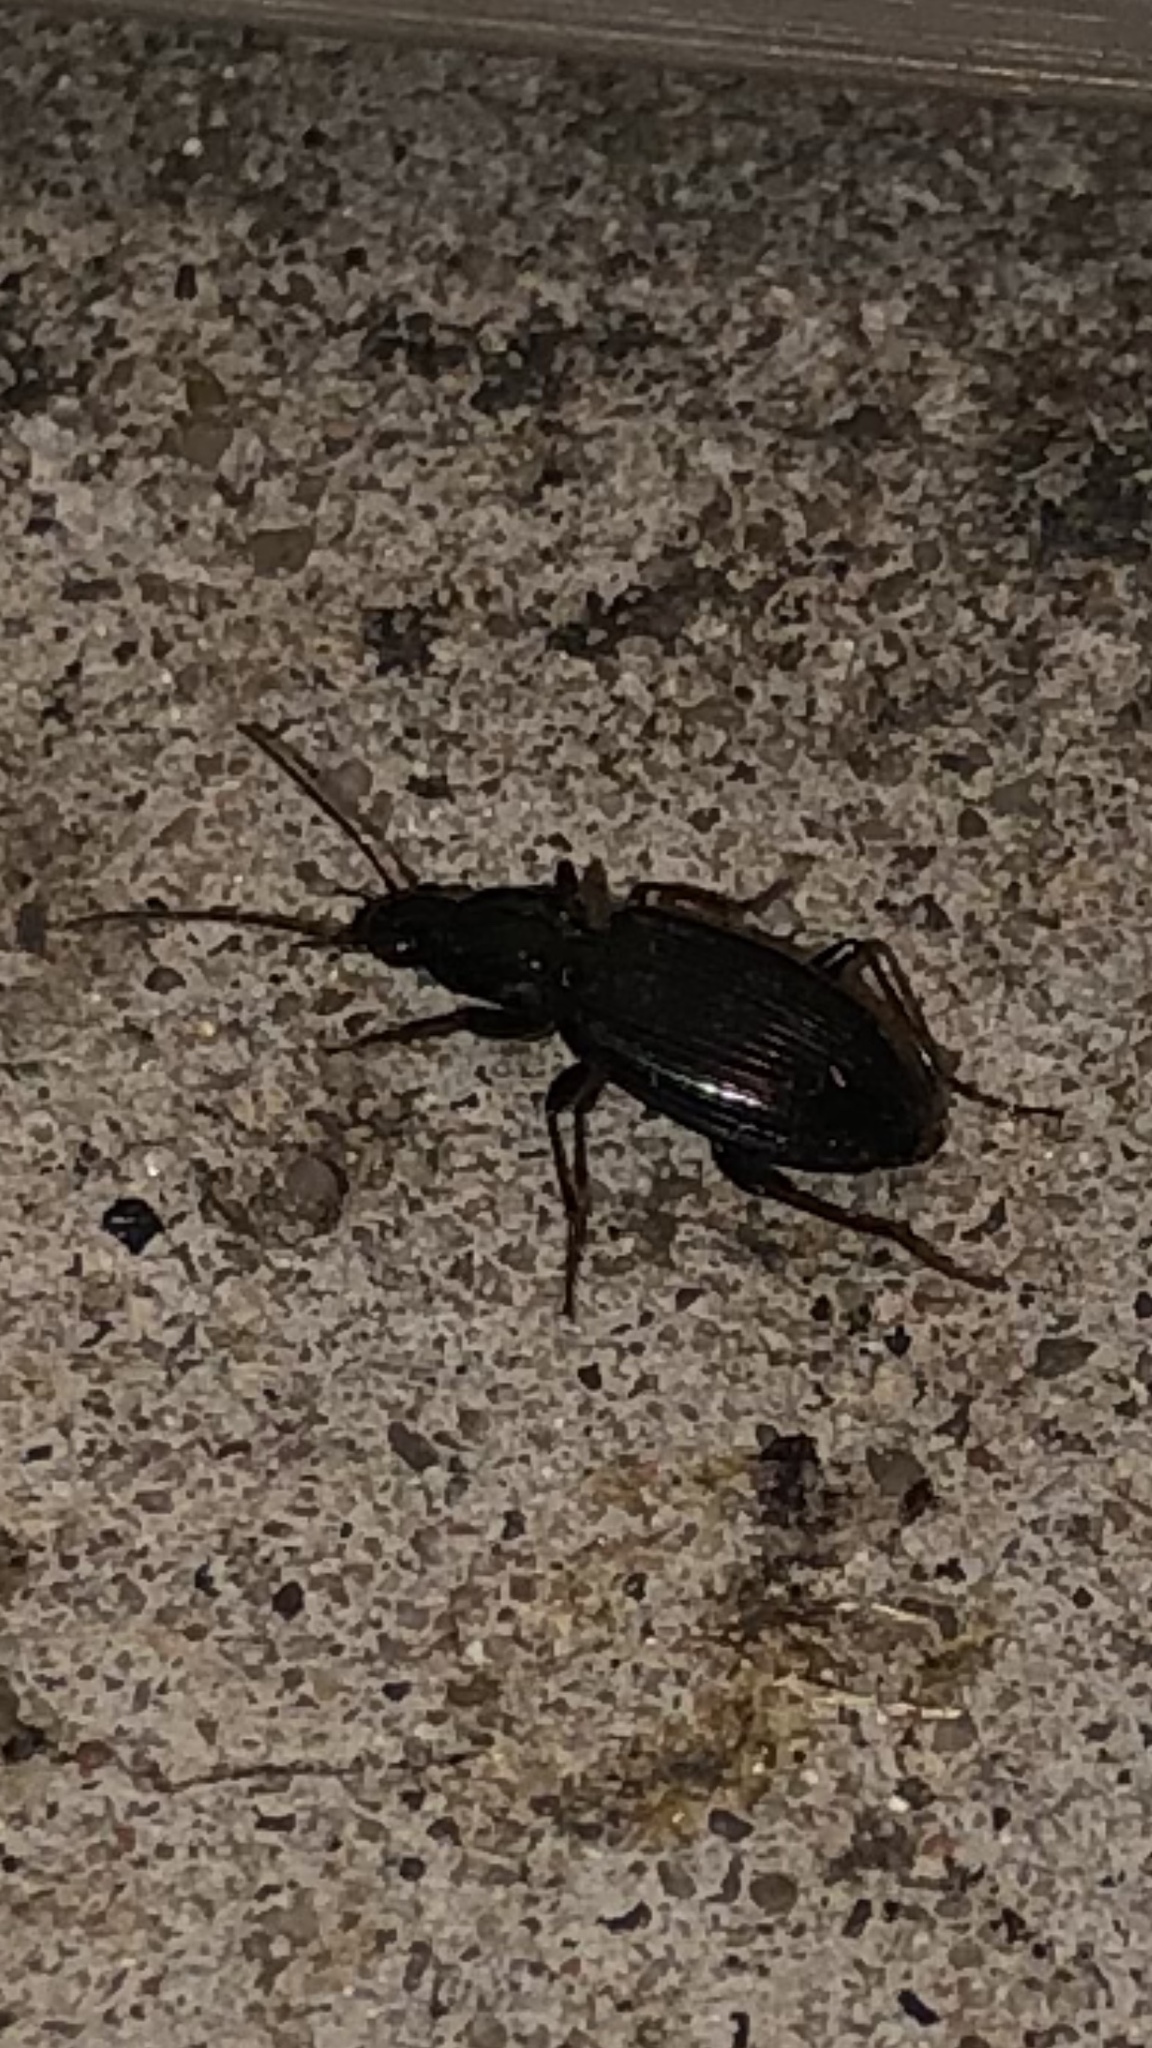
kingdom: Animalia
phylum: Arthropoda
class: Insecta
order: Coleoptera
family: Carabidae
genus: Agonum
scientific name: Agonum punctiforme
